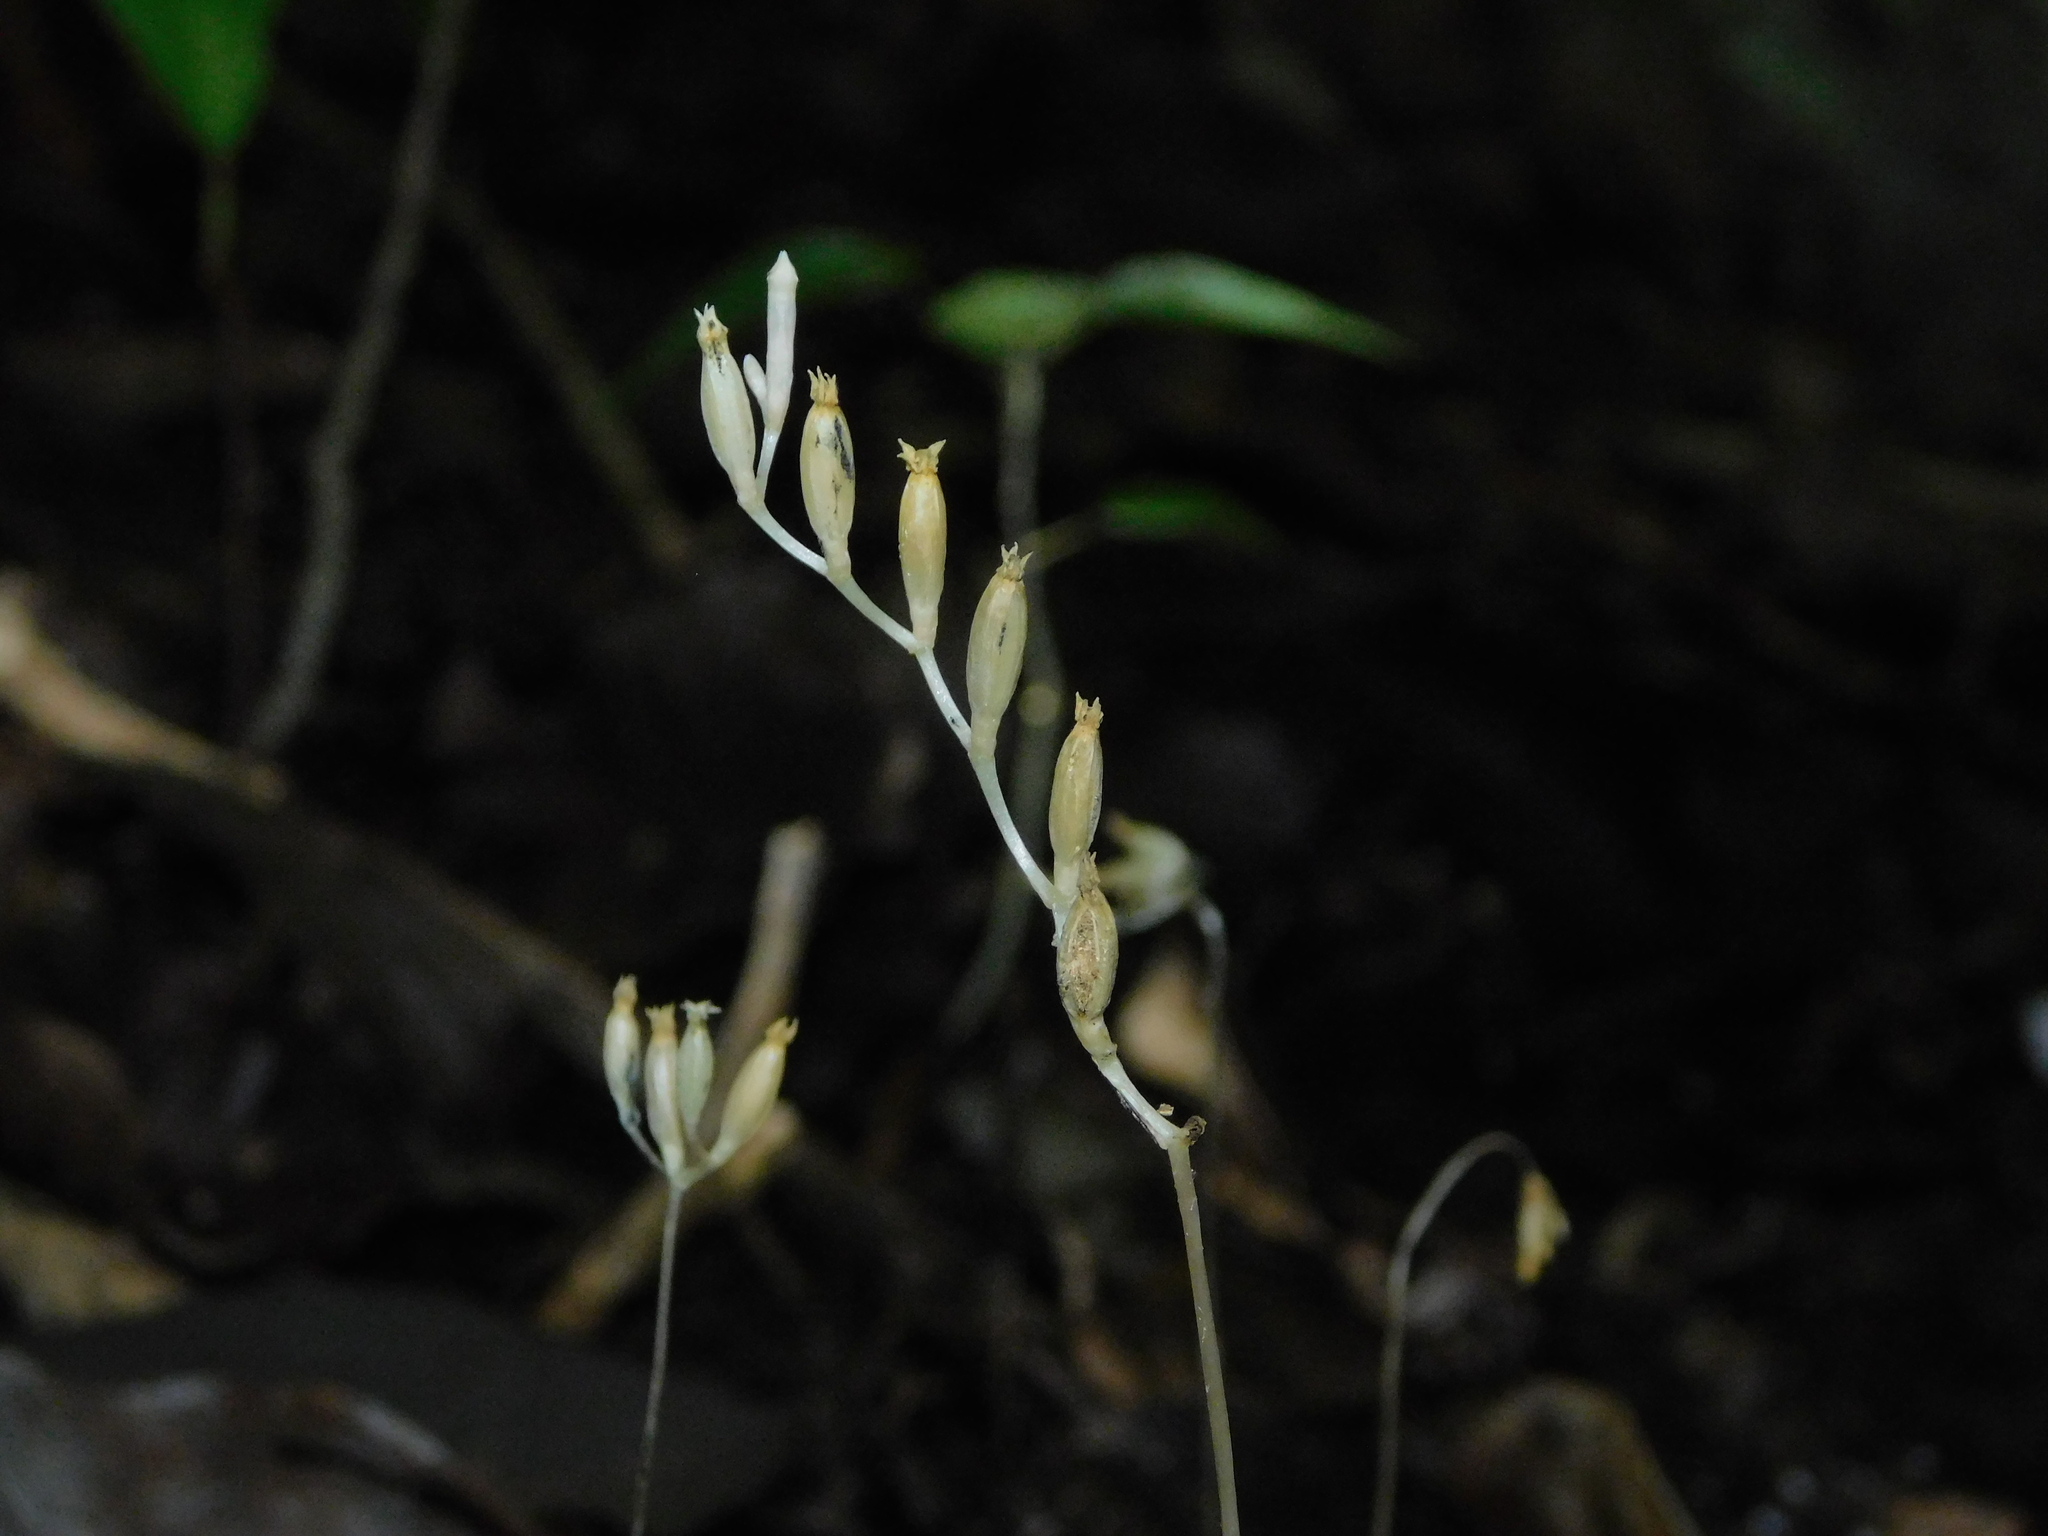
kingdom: Plantae
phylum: Tracheophyta
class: Magnoliopsida
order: Gentianales
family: Gentianaceae
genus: Voyria
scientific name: Voyria parasitica
